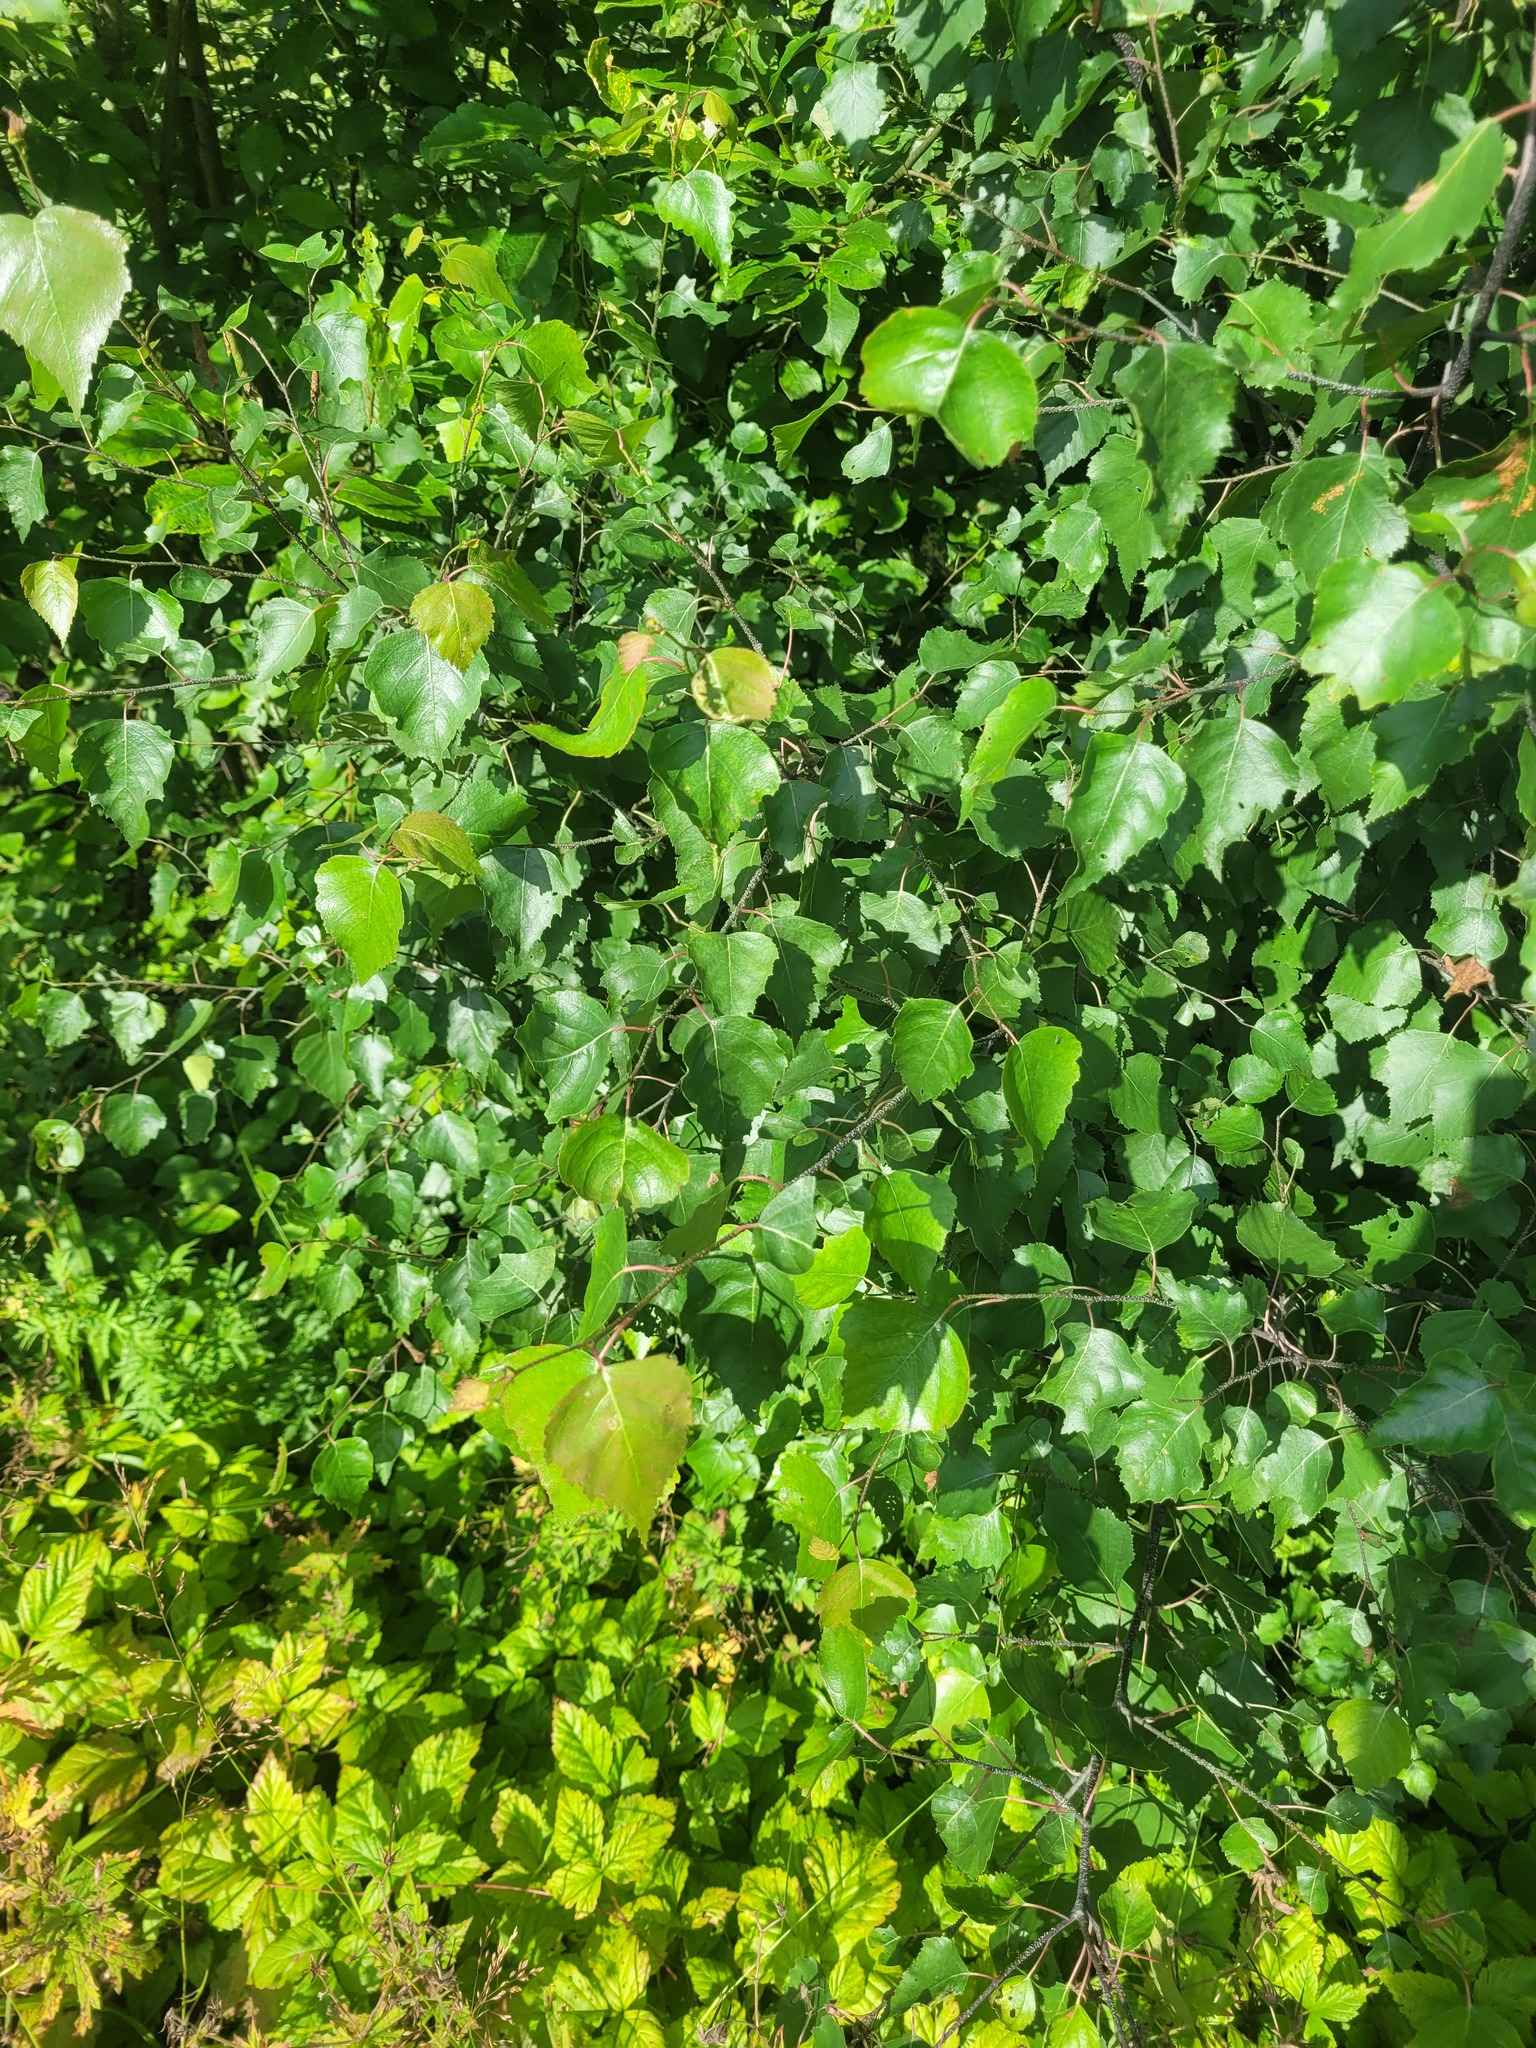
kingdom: Plantae
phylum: Tracheophyta
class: Magnoliopsida
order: Fagales
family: Betulaceae
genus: Betula
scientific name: Betula pendula
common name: Silver birch
